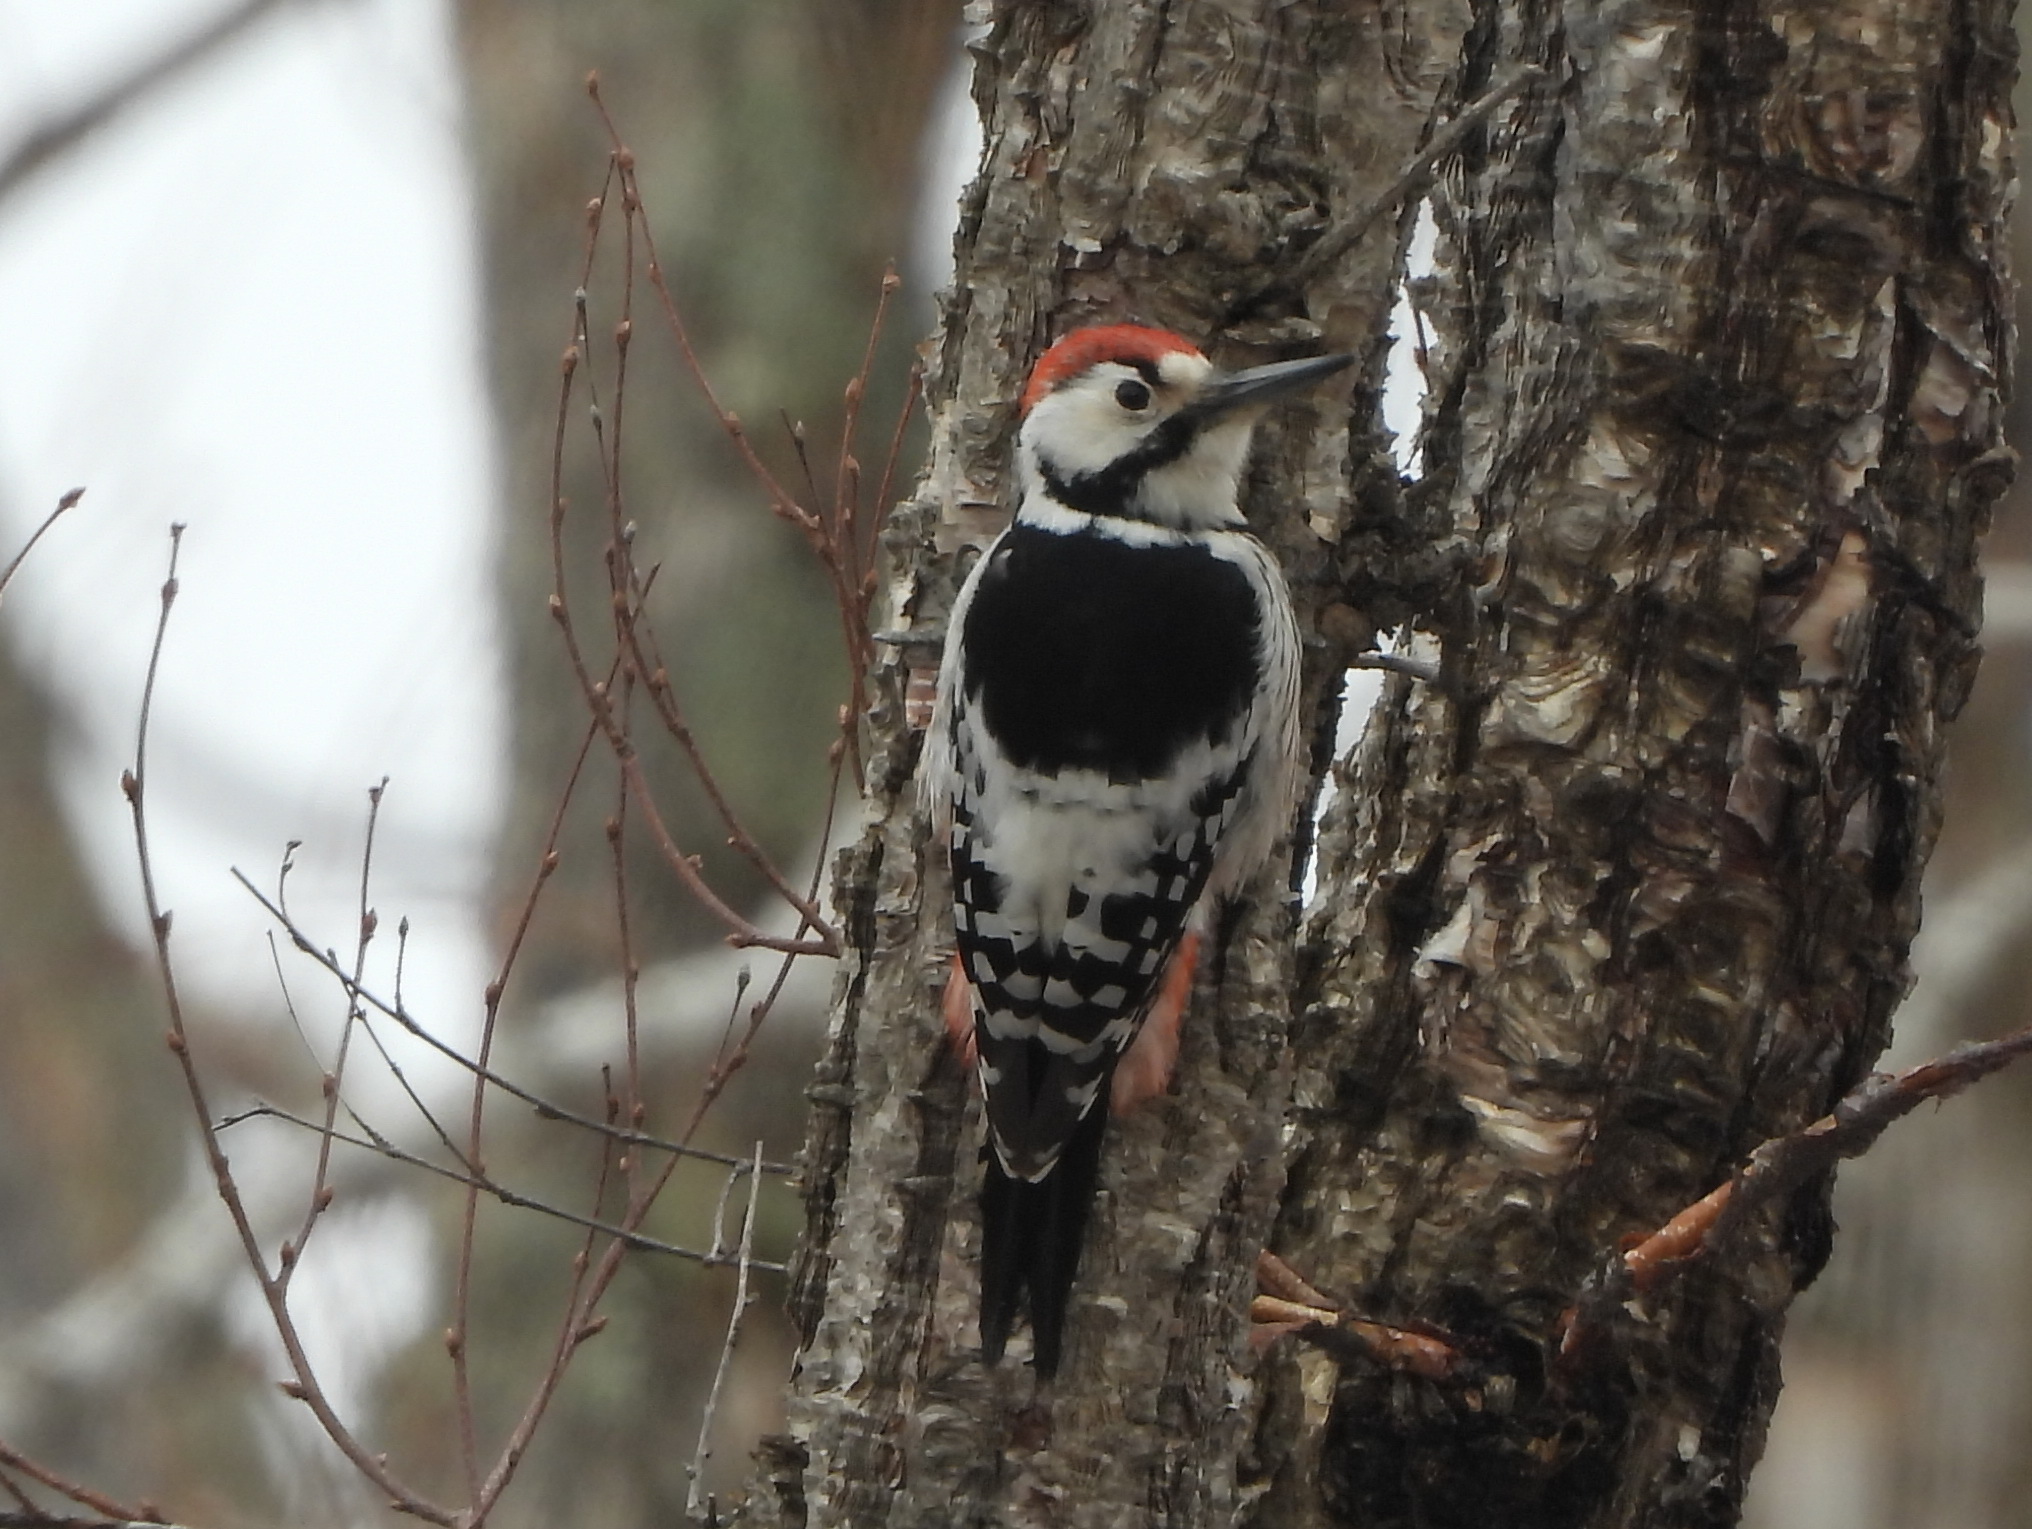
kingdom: Animalia
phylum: Chordata
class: Aves
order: Piciformes
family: Picidae
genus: Dendrocopos
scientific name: Dendrocopos leucotos
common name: White-backed woodpecker
